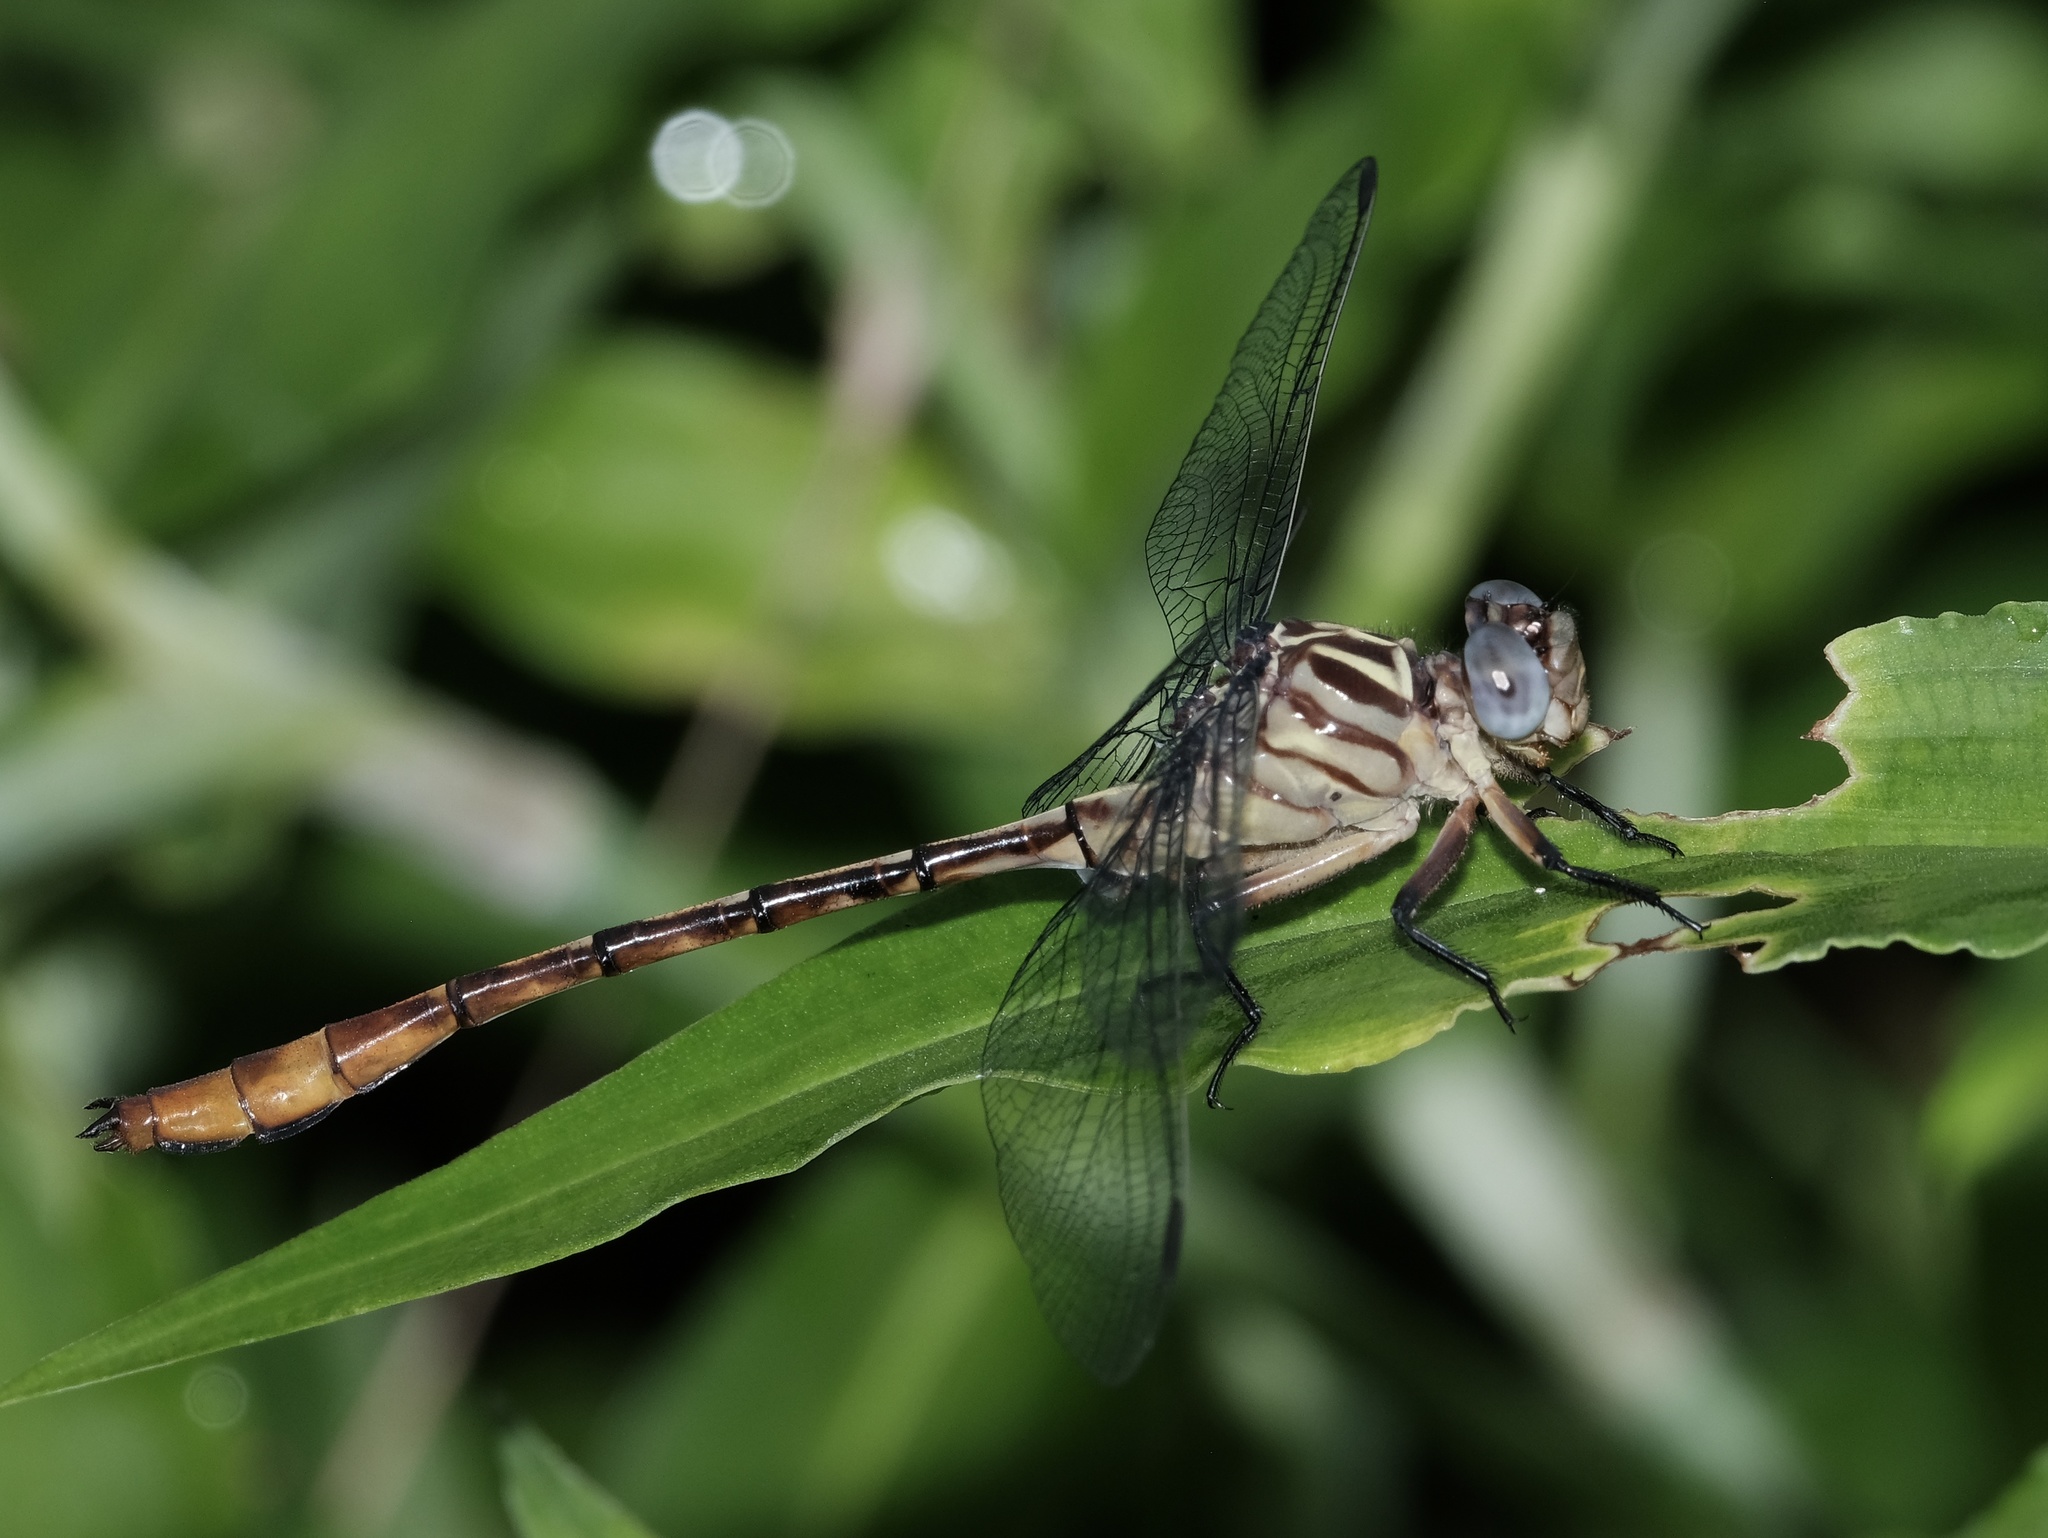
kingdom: Animalia
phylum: Arthropoda
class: Insecta
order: Odonata
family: Gomphidae
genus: Stylurus
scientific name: Stylurus plagiatus
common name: Russet-tipped clubtail
